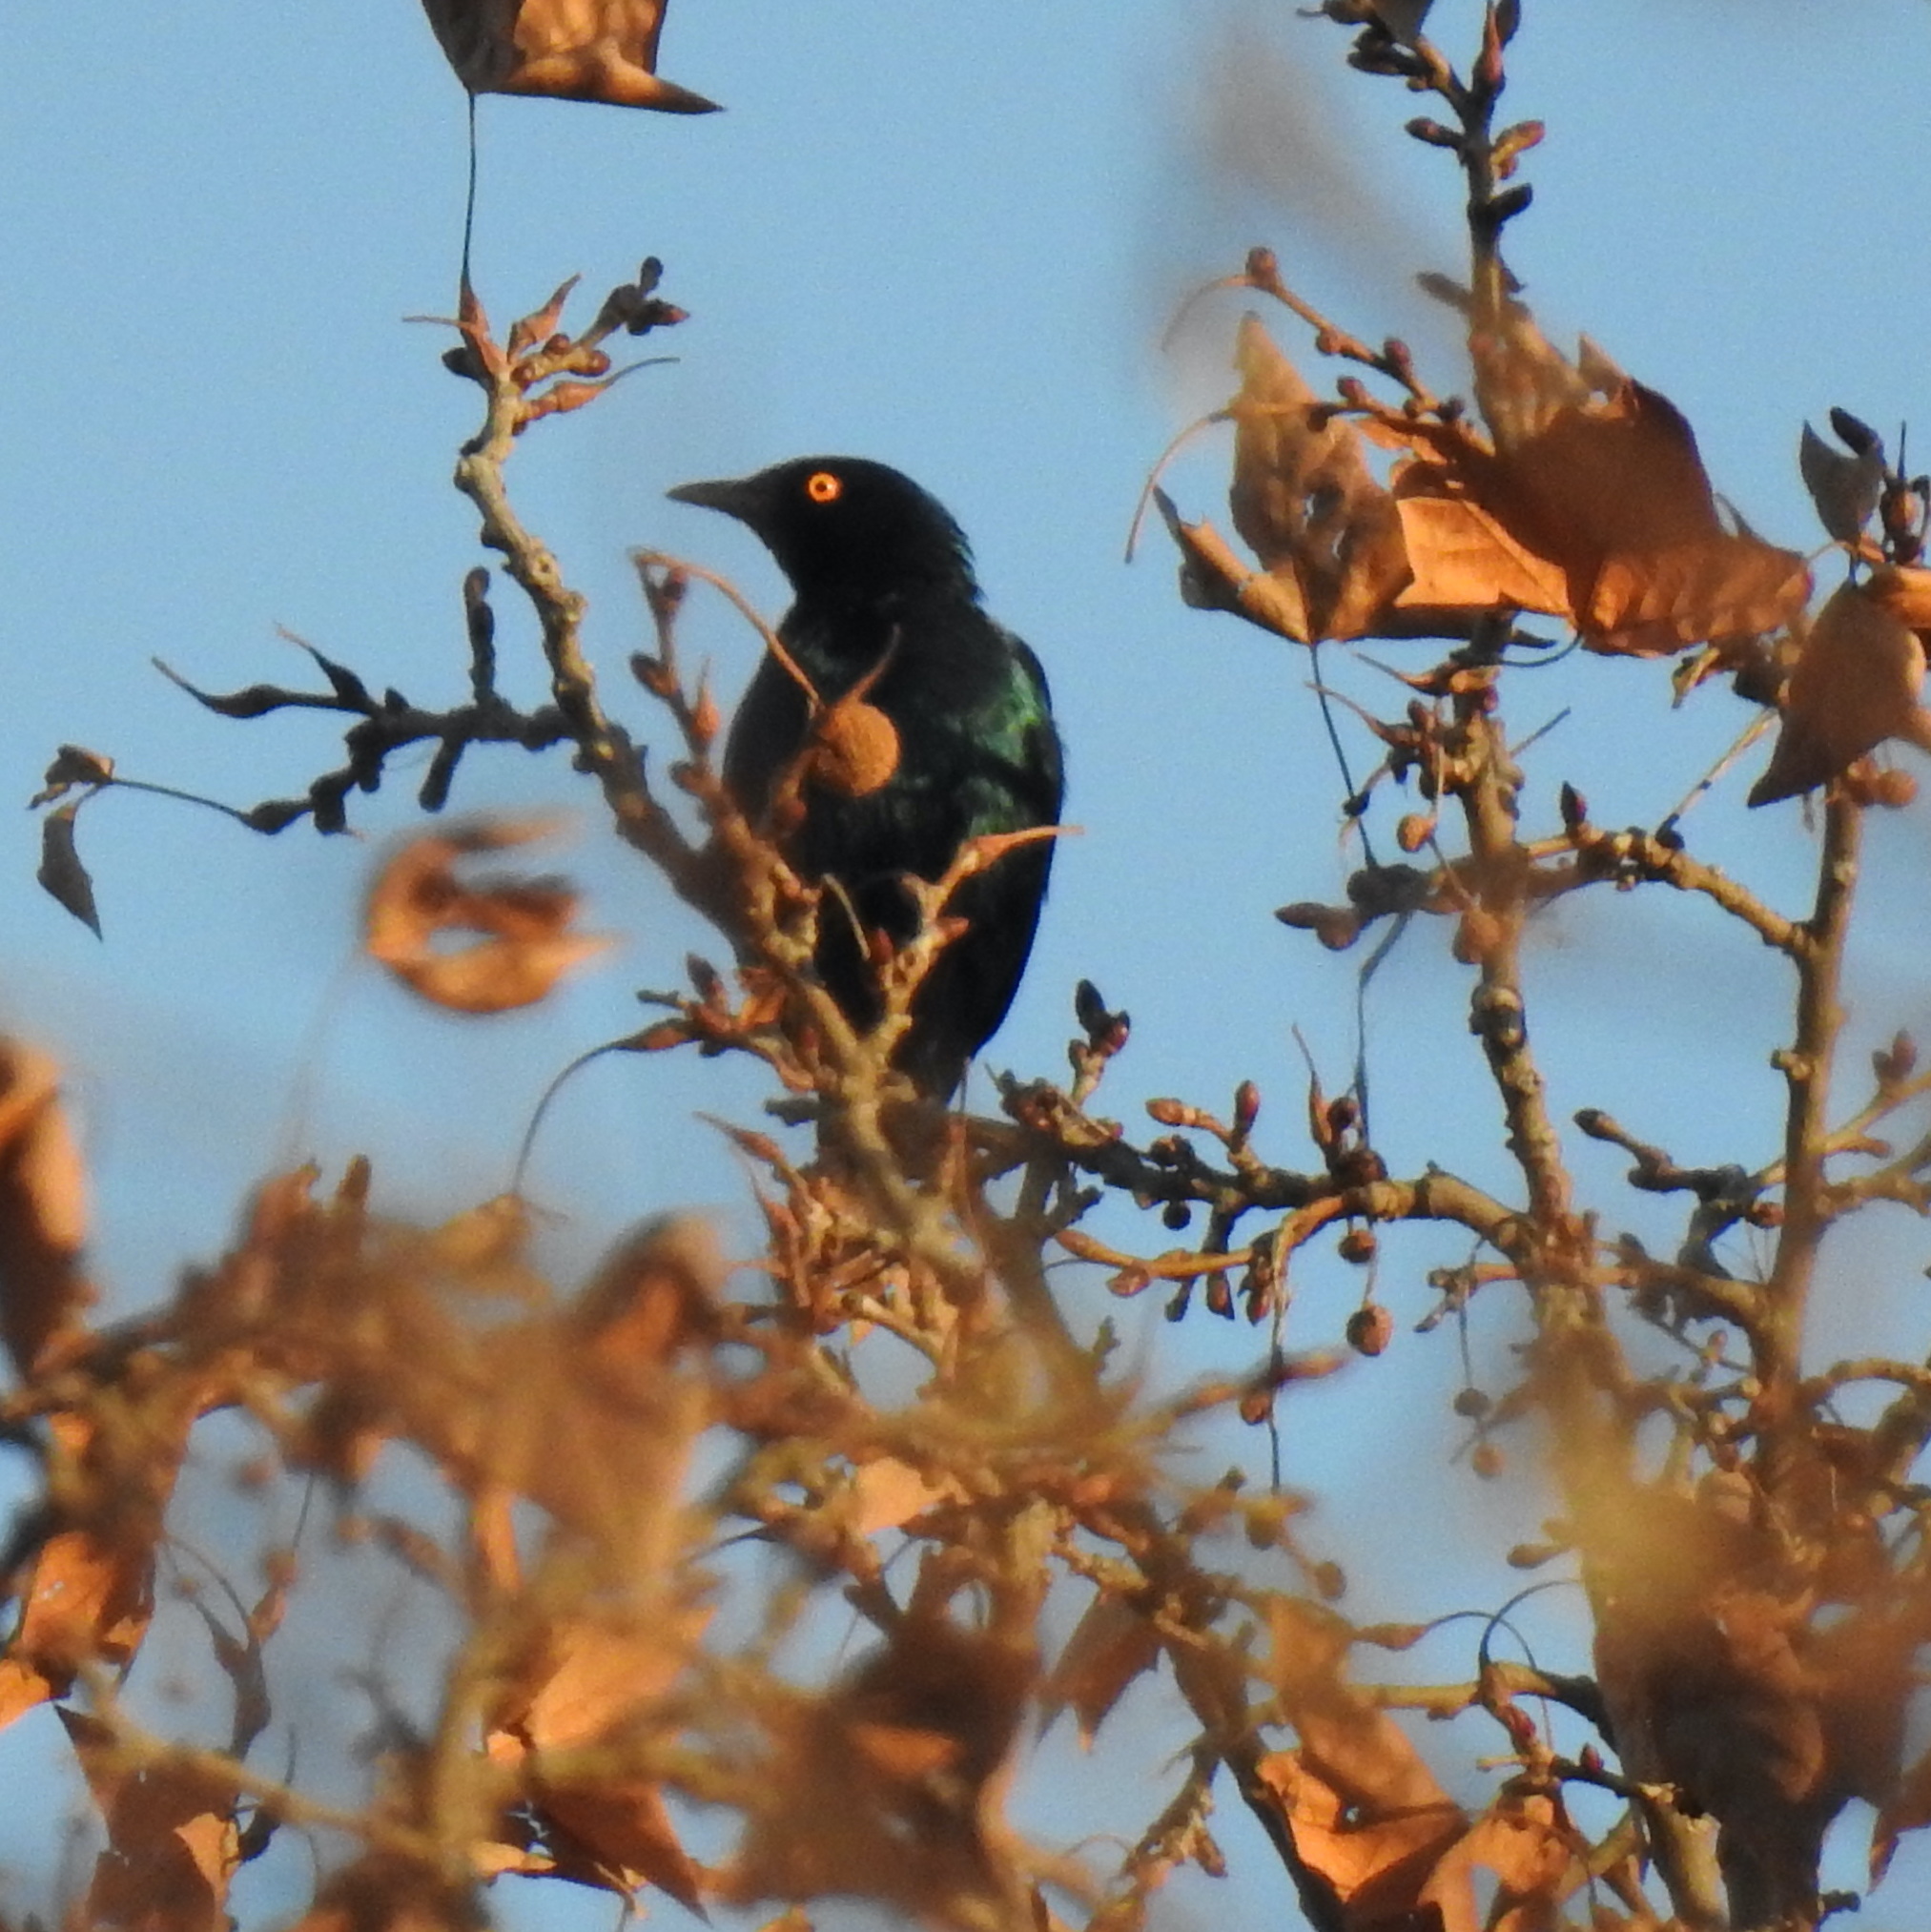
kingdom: Animalia
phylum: Chordata
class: Aves
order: Passeriformes
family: Sturnidae
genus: Lamprotornis
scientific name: Lamprotornis nitens
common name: Cape starling
